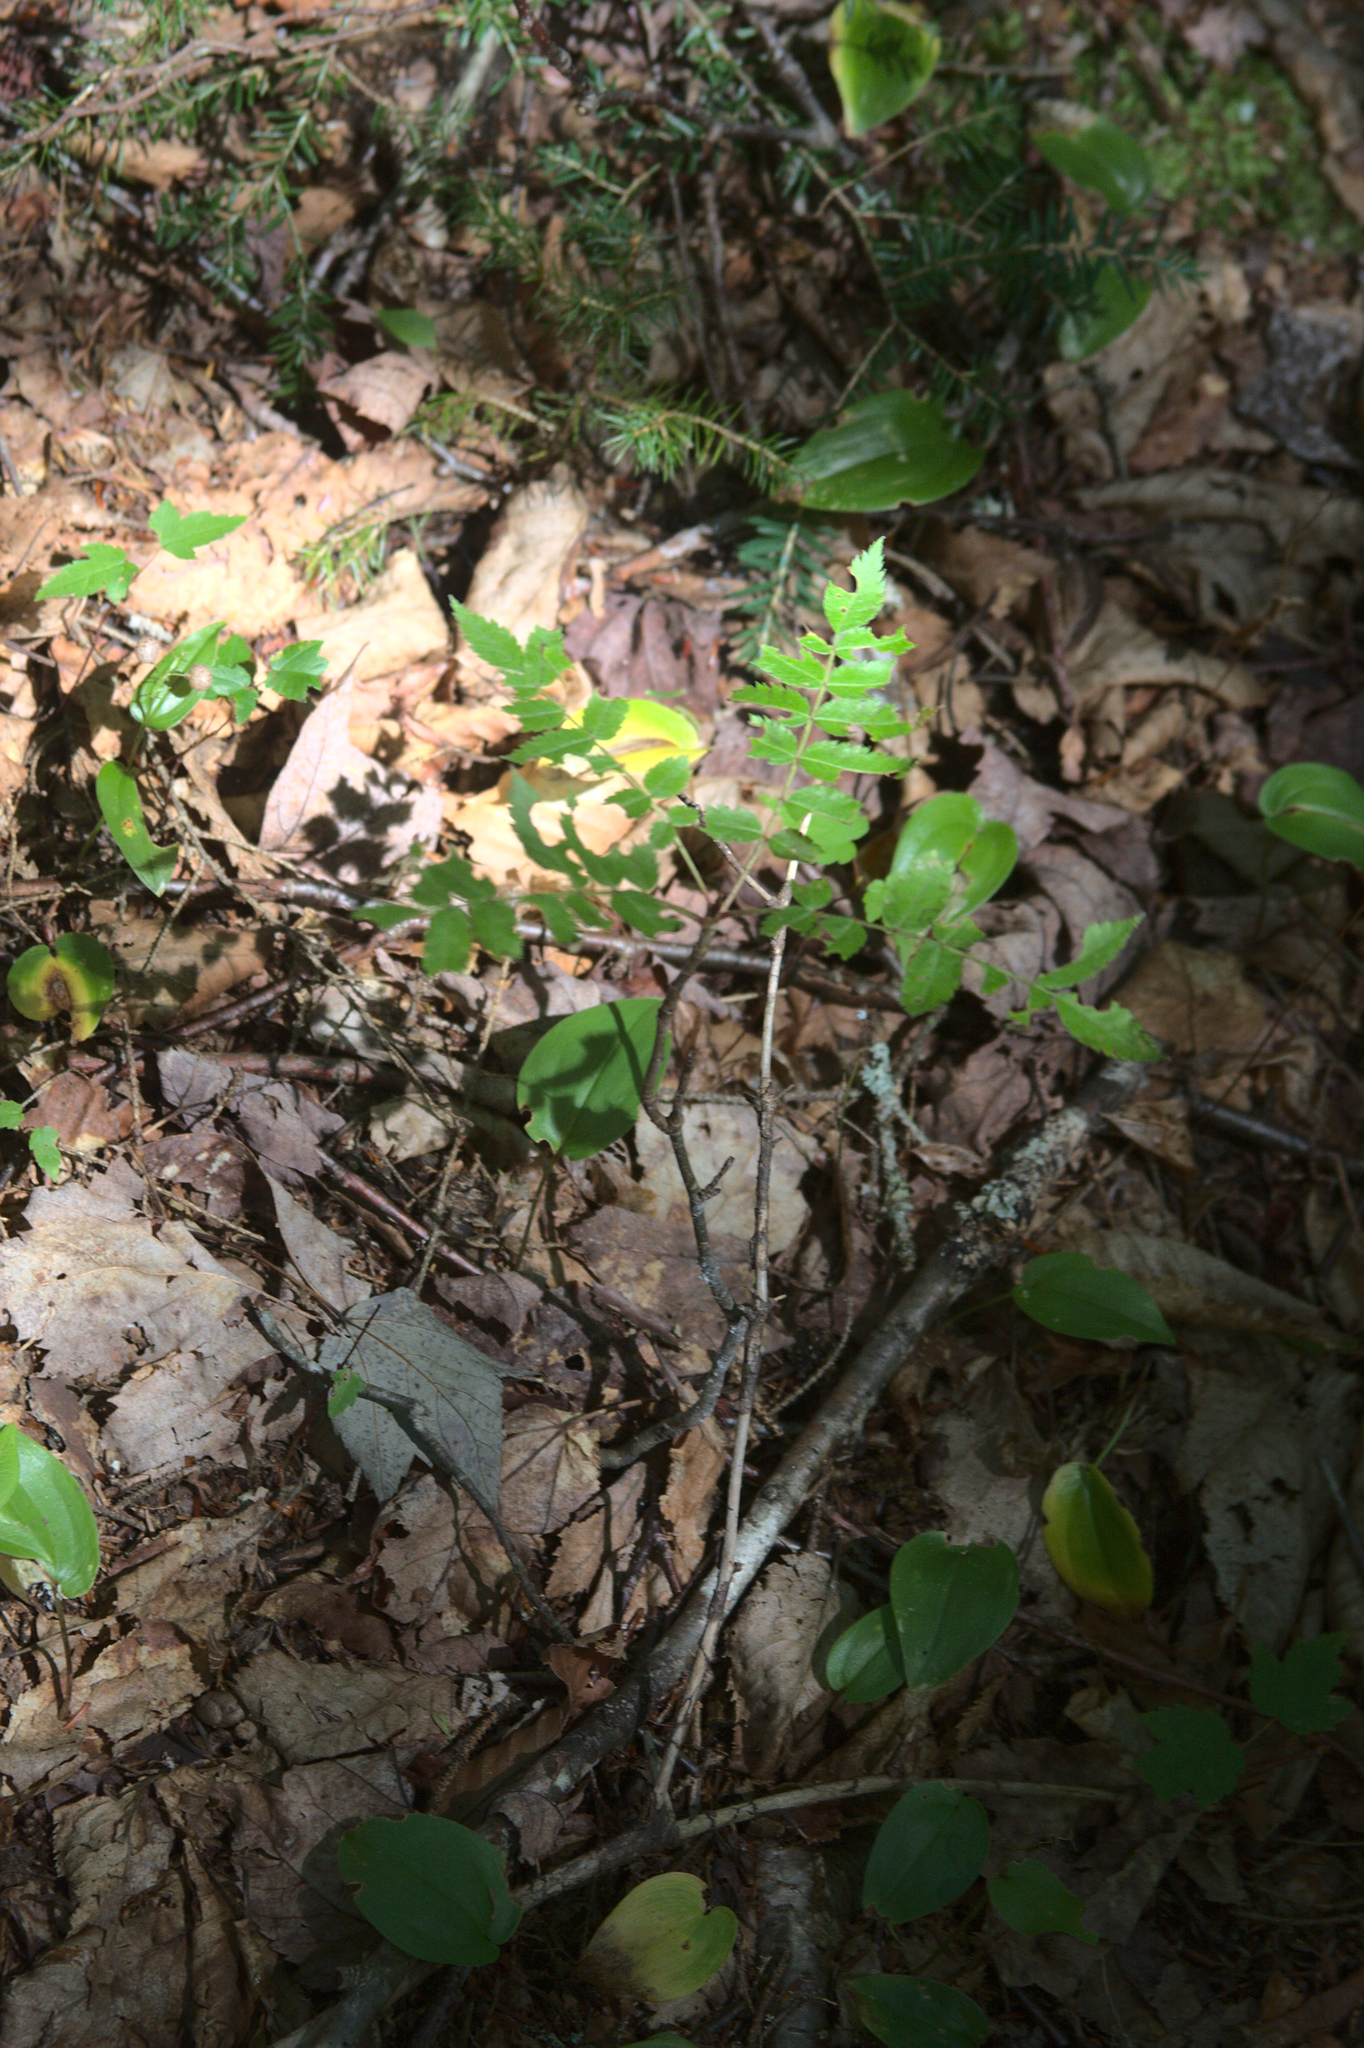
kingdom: Plantae
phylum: Tracheophyta
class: Liliopsida
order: Asparagales
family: Asparagaceae
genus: Maianthemum
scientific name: Maianthemum canadense
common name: False lily-of-the-valley
